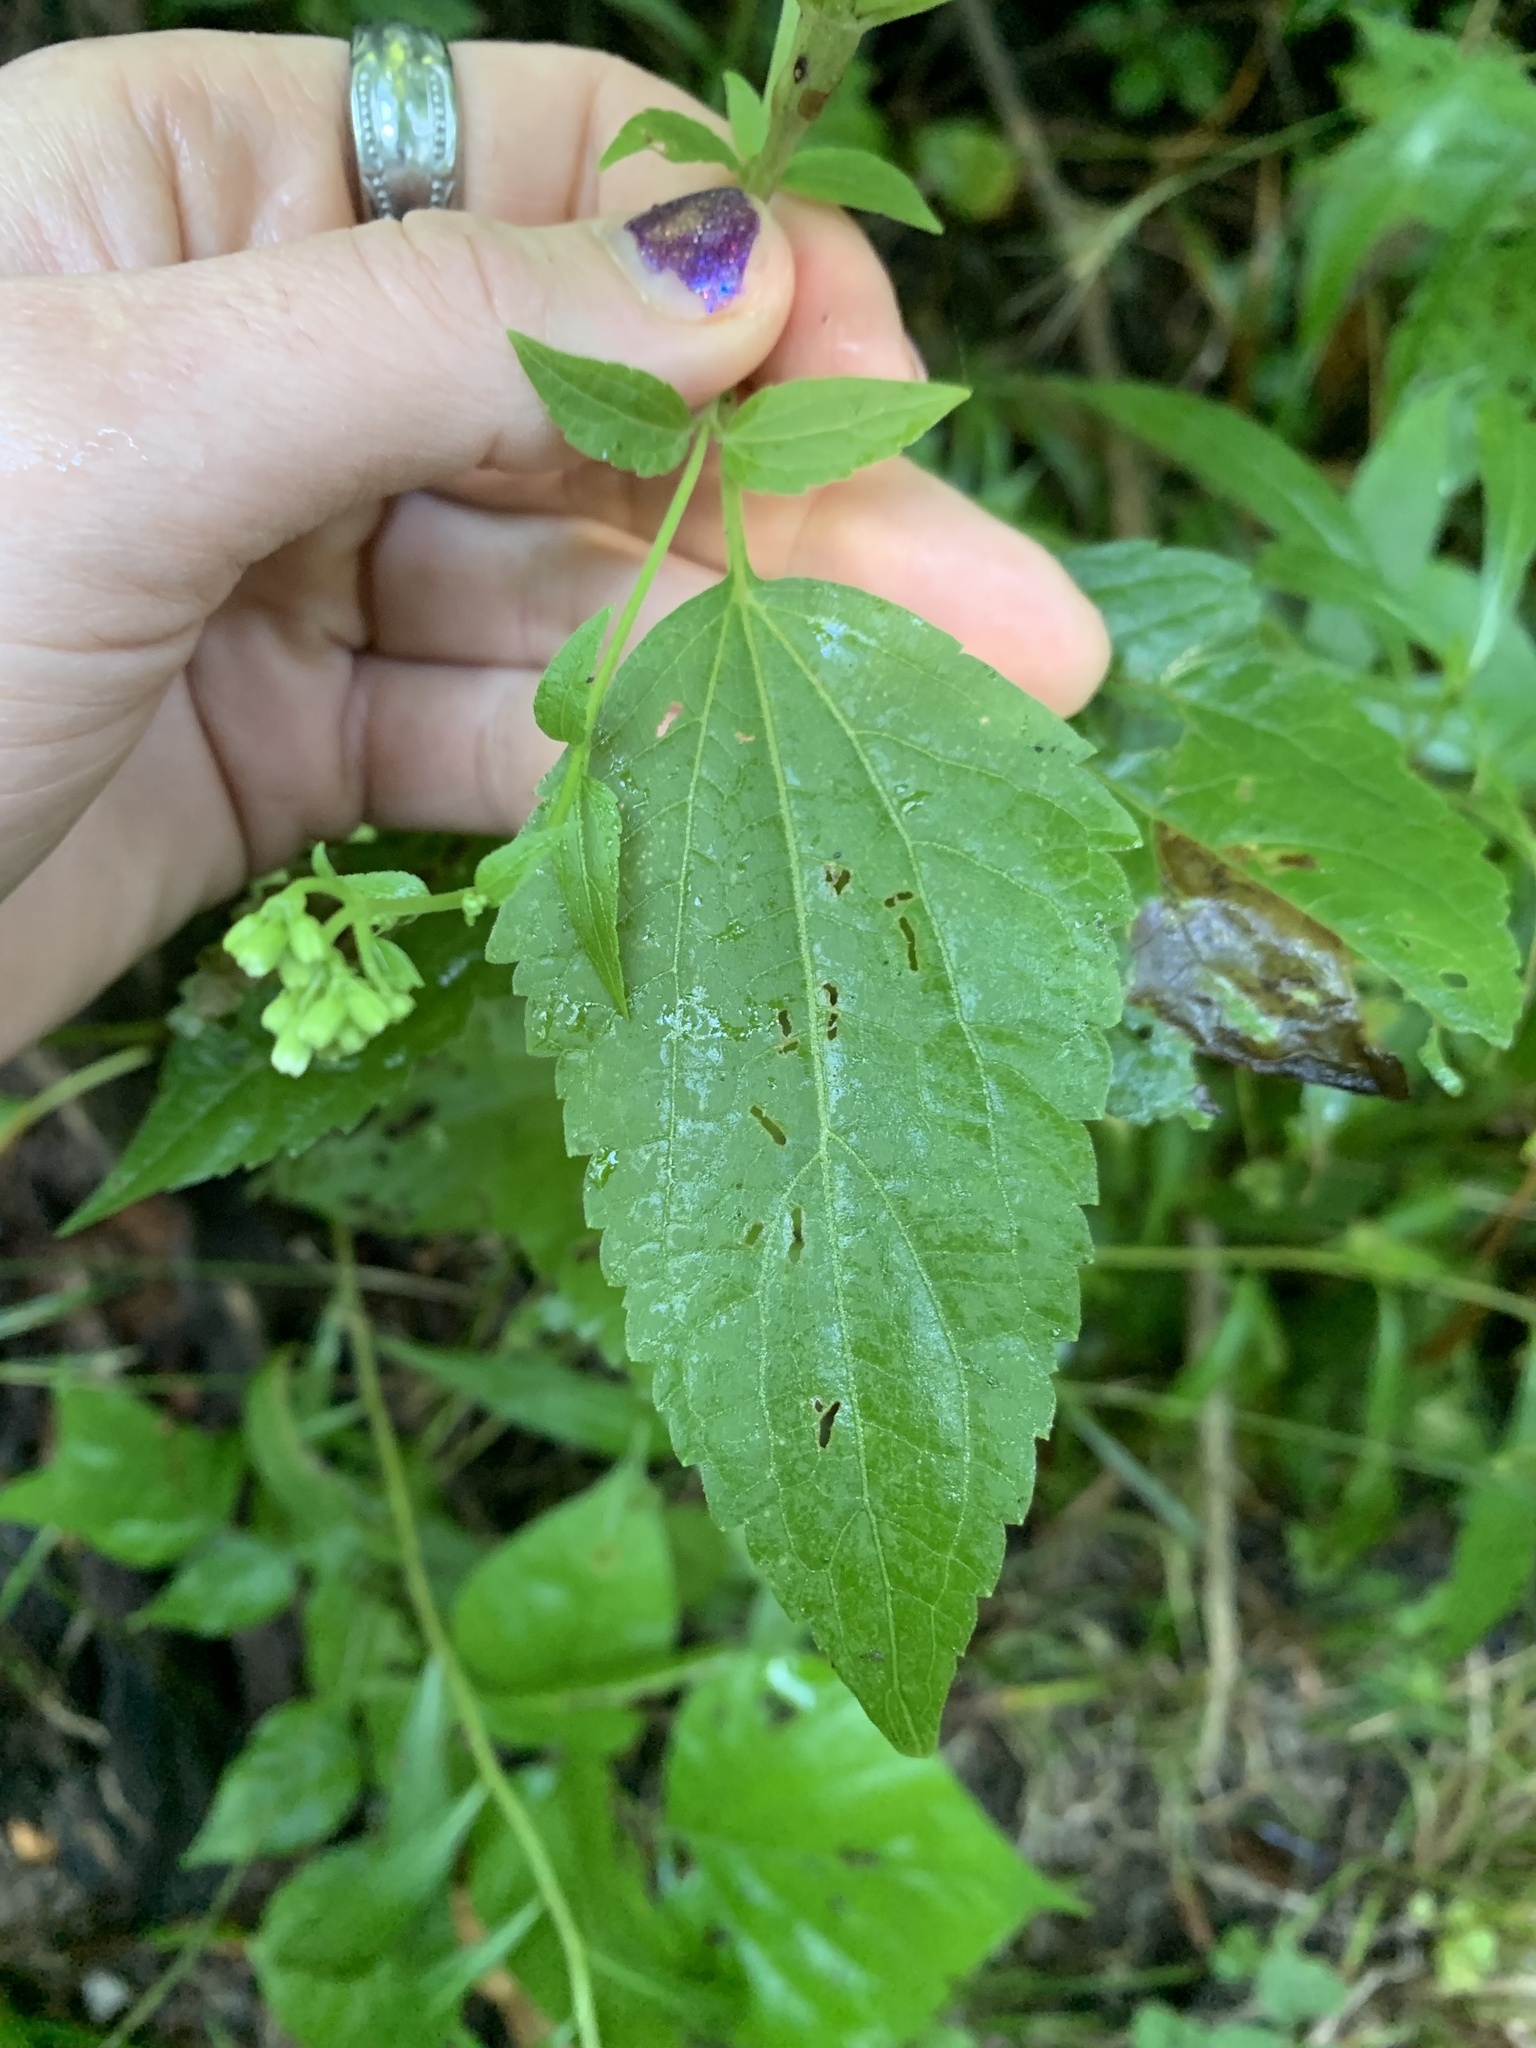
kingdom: Plantae
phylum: Tracheophyta
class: Magnoliopsida
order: Asterales
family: Asteraceae
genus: Ageratina
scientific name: Ageratina altissima
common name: White snakeroot
